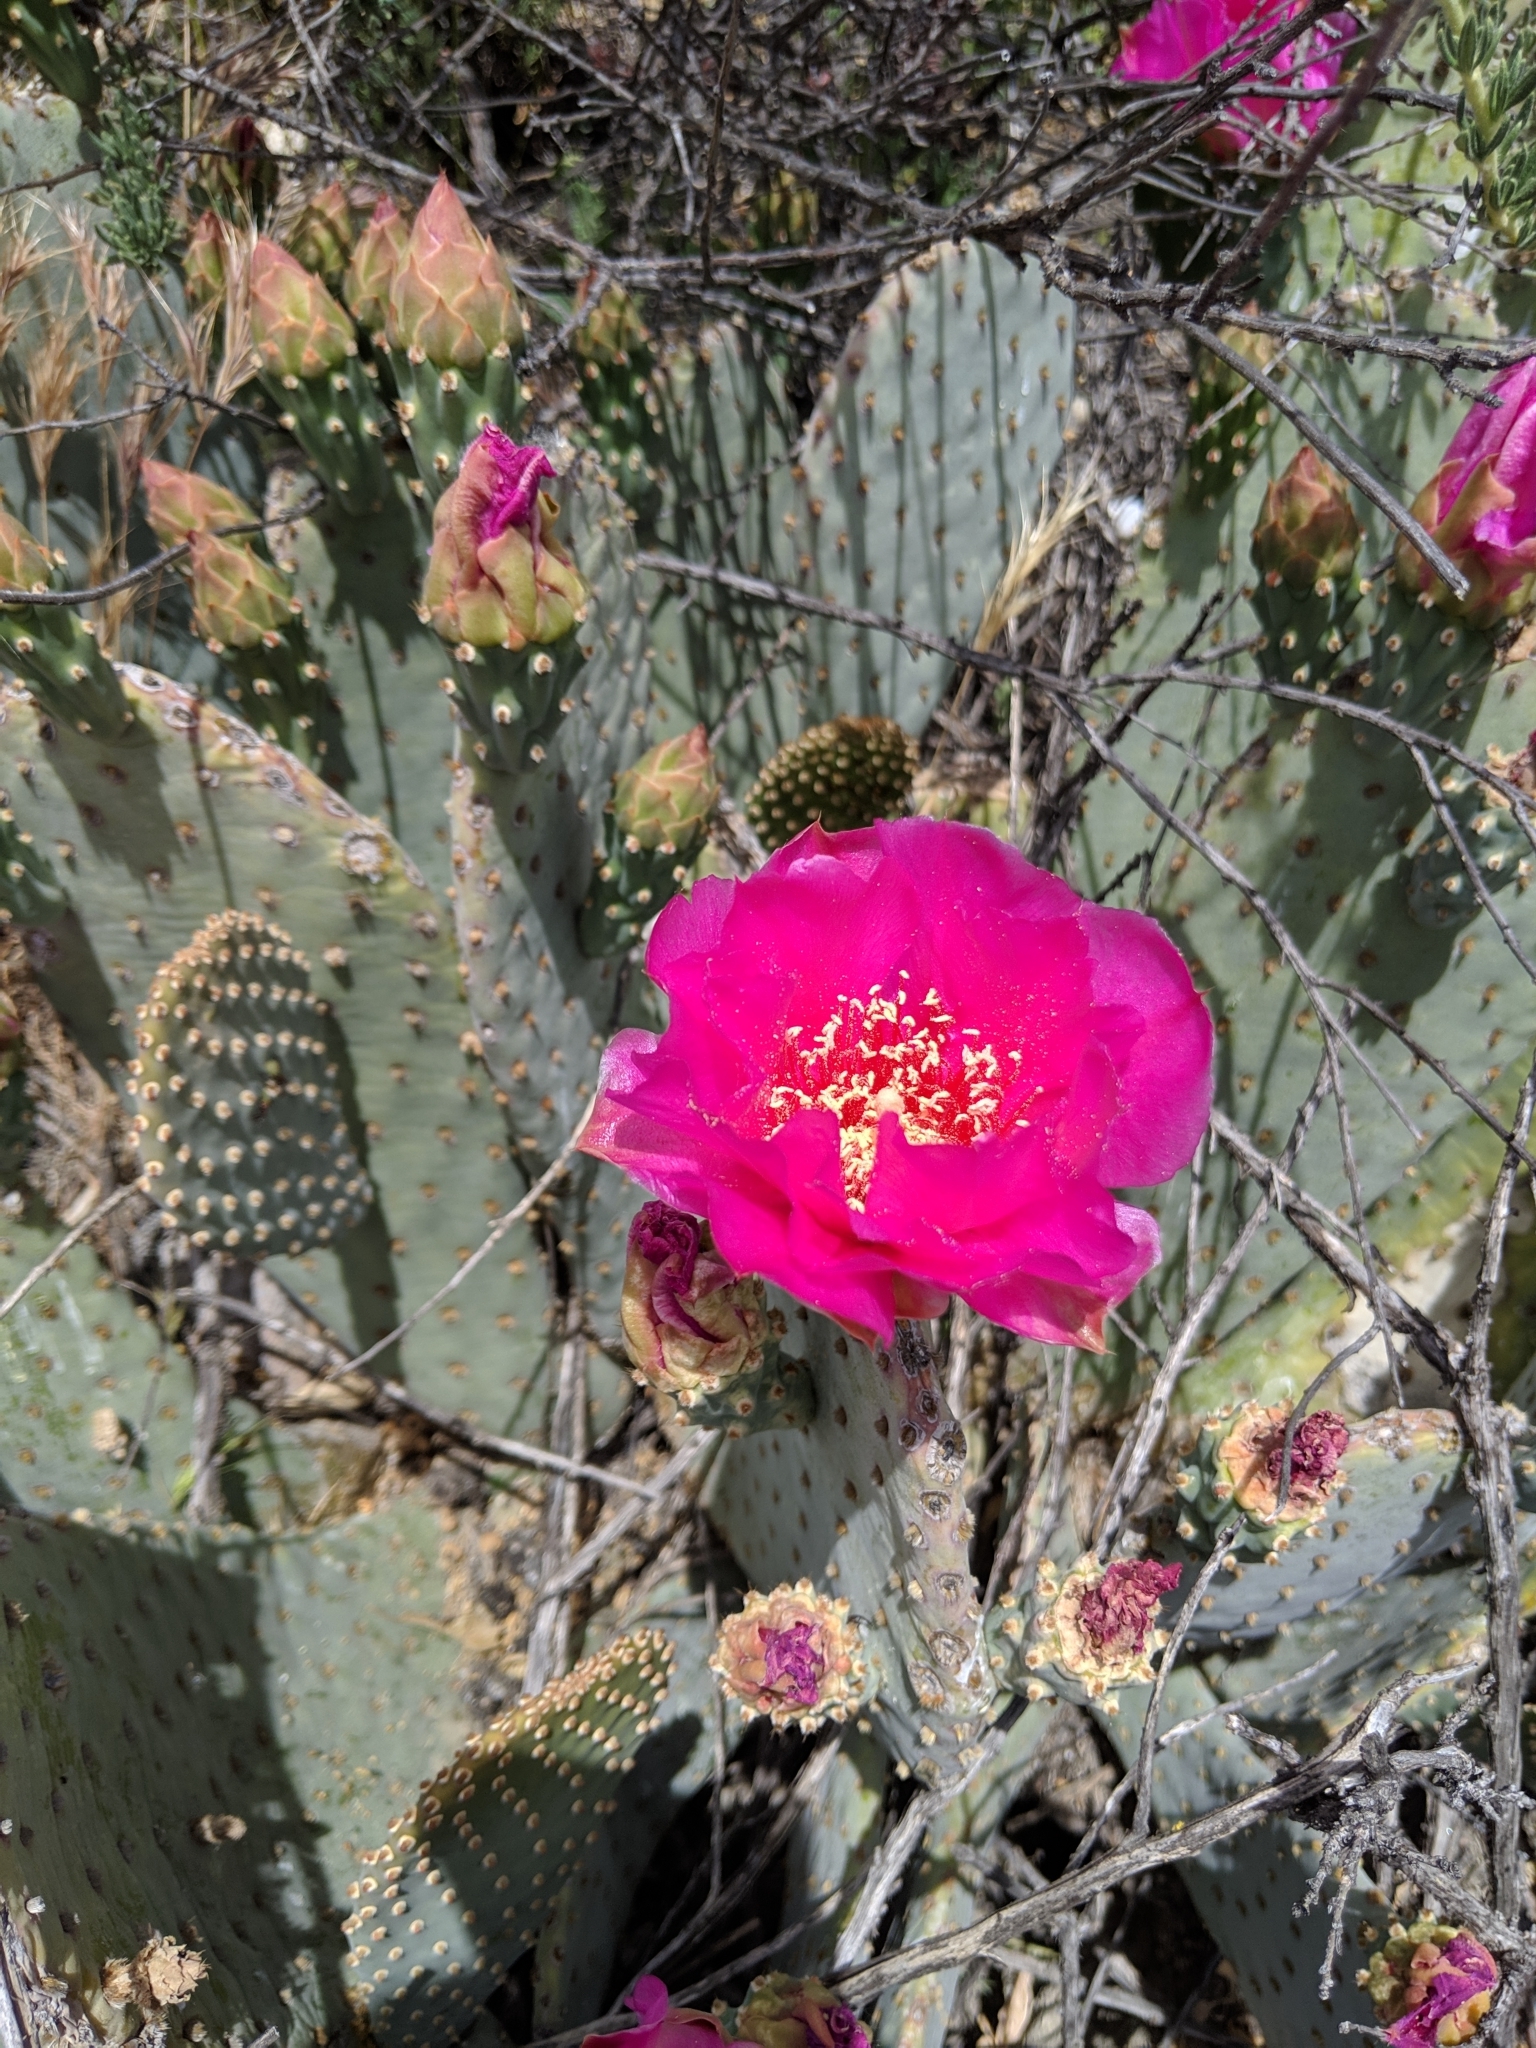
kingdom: Plantae
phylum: Tracheophyta
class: Magnoliopsida
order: Caryophyllales
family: Cactaceae
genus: Opuntia
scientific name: Opuntia basilaris
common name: Beavertail prickly-pear
